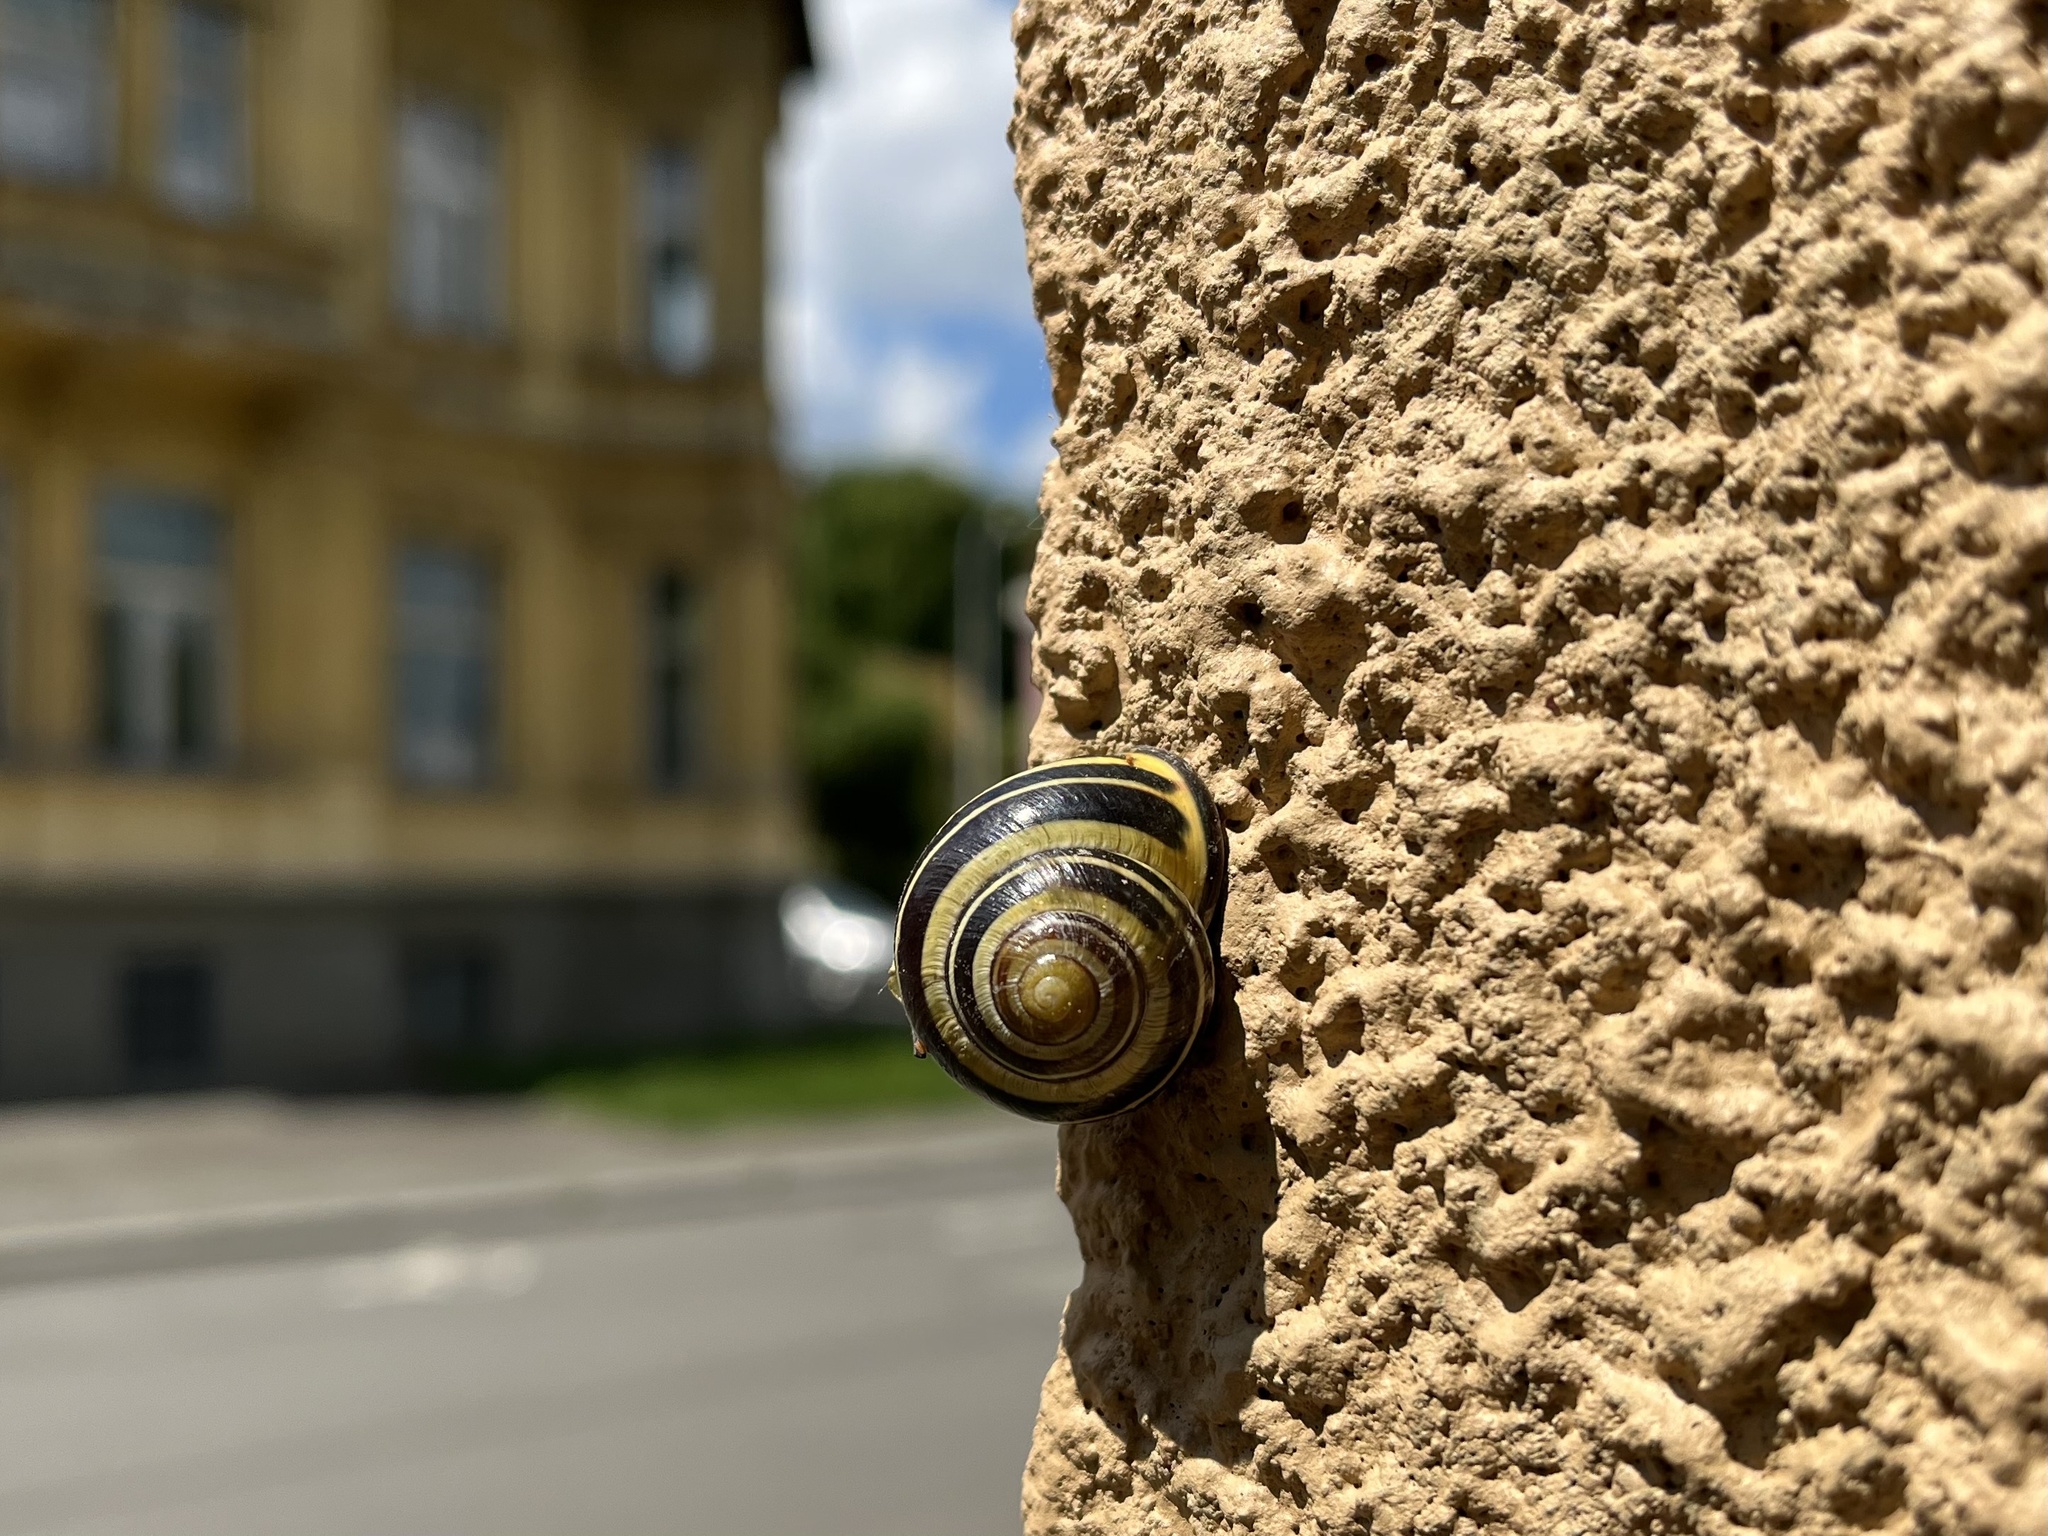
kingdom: Animalia
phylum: Mollusca
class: Gastropoda
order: Stylommatophora
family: Helicidae
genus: Cepaea
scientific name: Cepaea nemoralis
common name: Grovesnail
